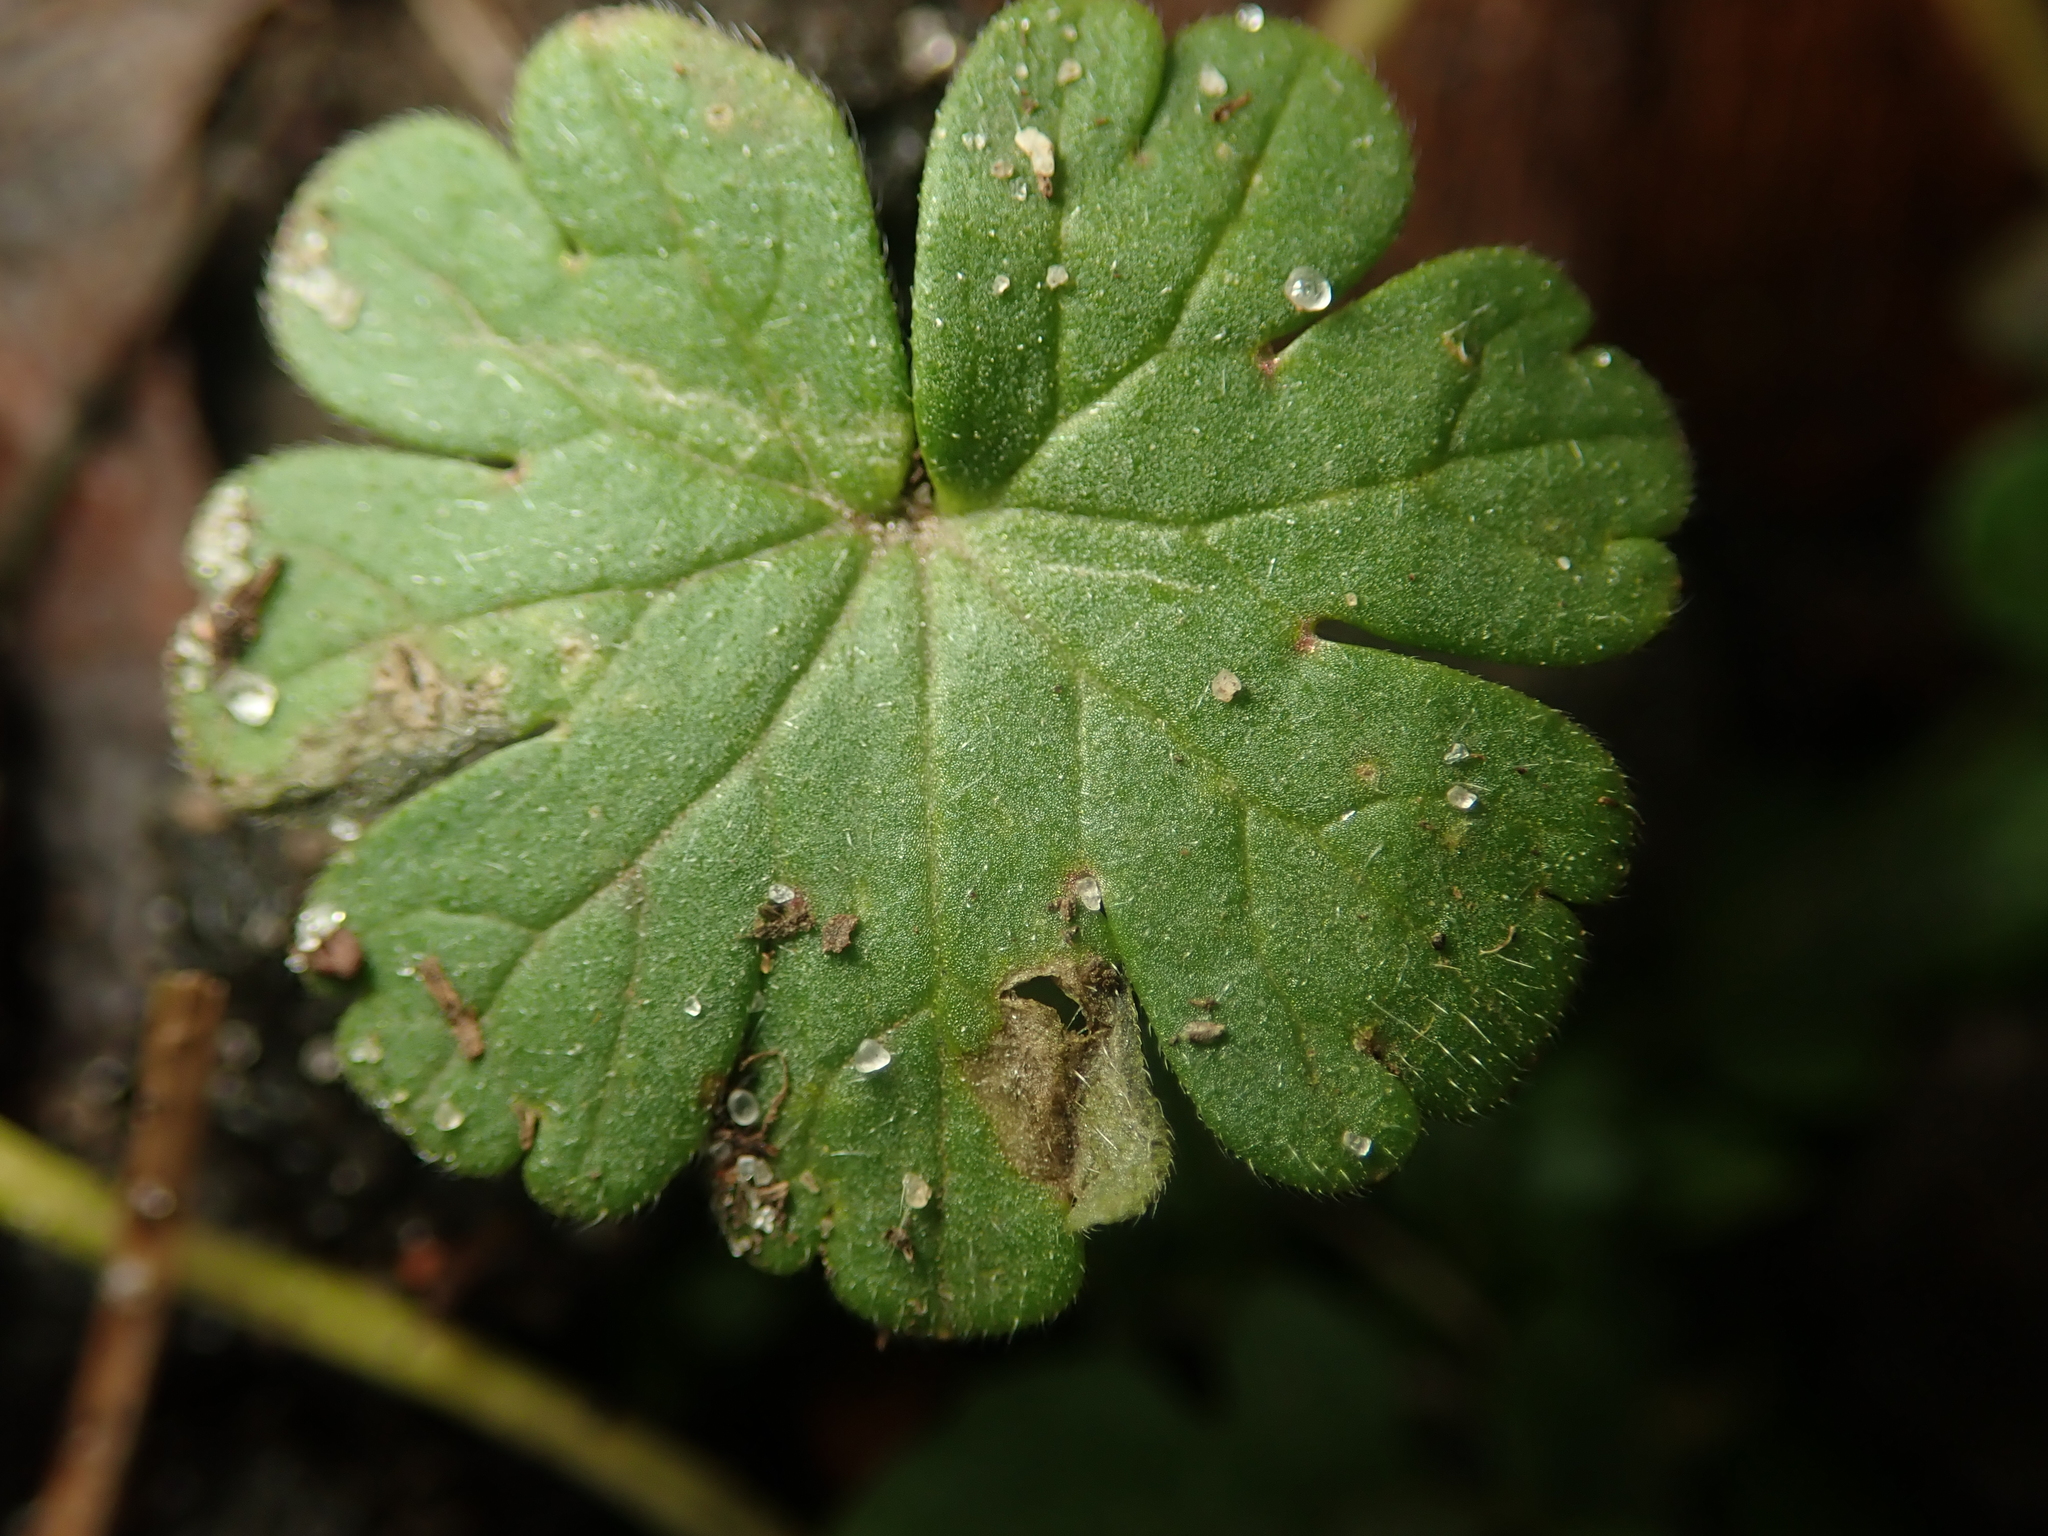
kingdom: Plantae
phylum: Tracheophyta
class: Magnoliopsida
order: Geraniales
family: Geraniaceae
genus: Geranium
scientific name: Geranium molle
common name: Dove's-foot crane's-bill
